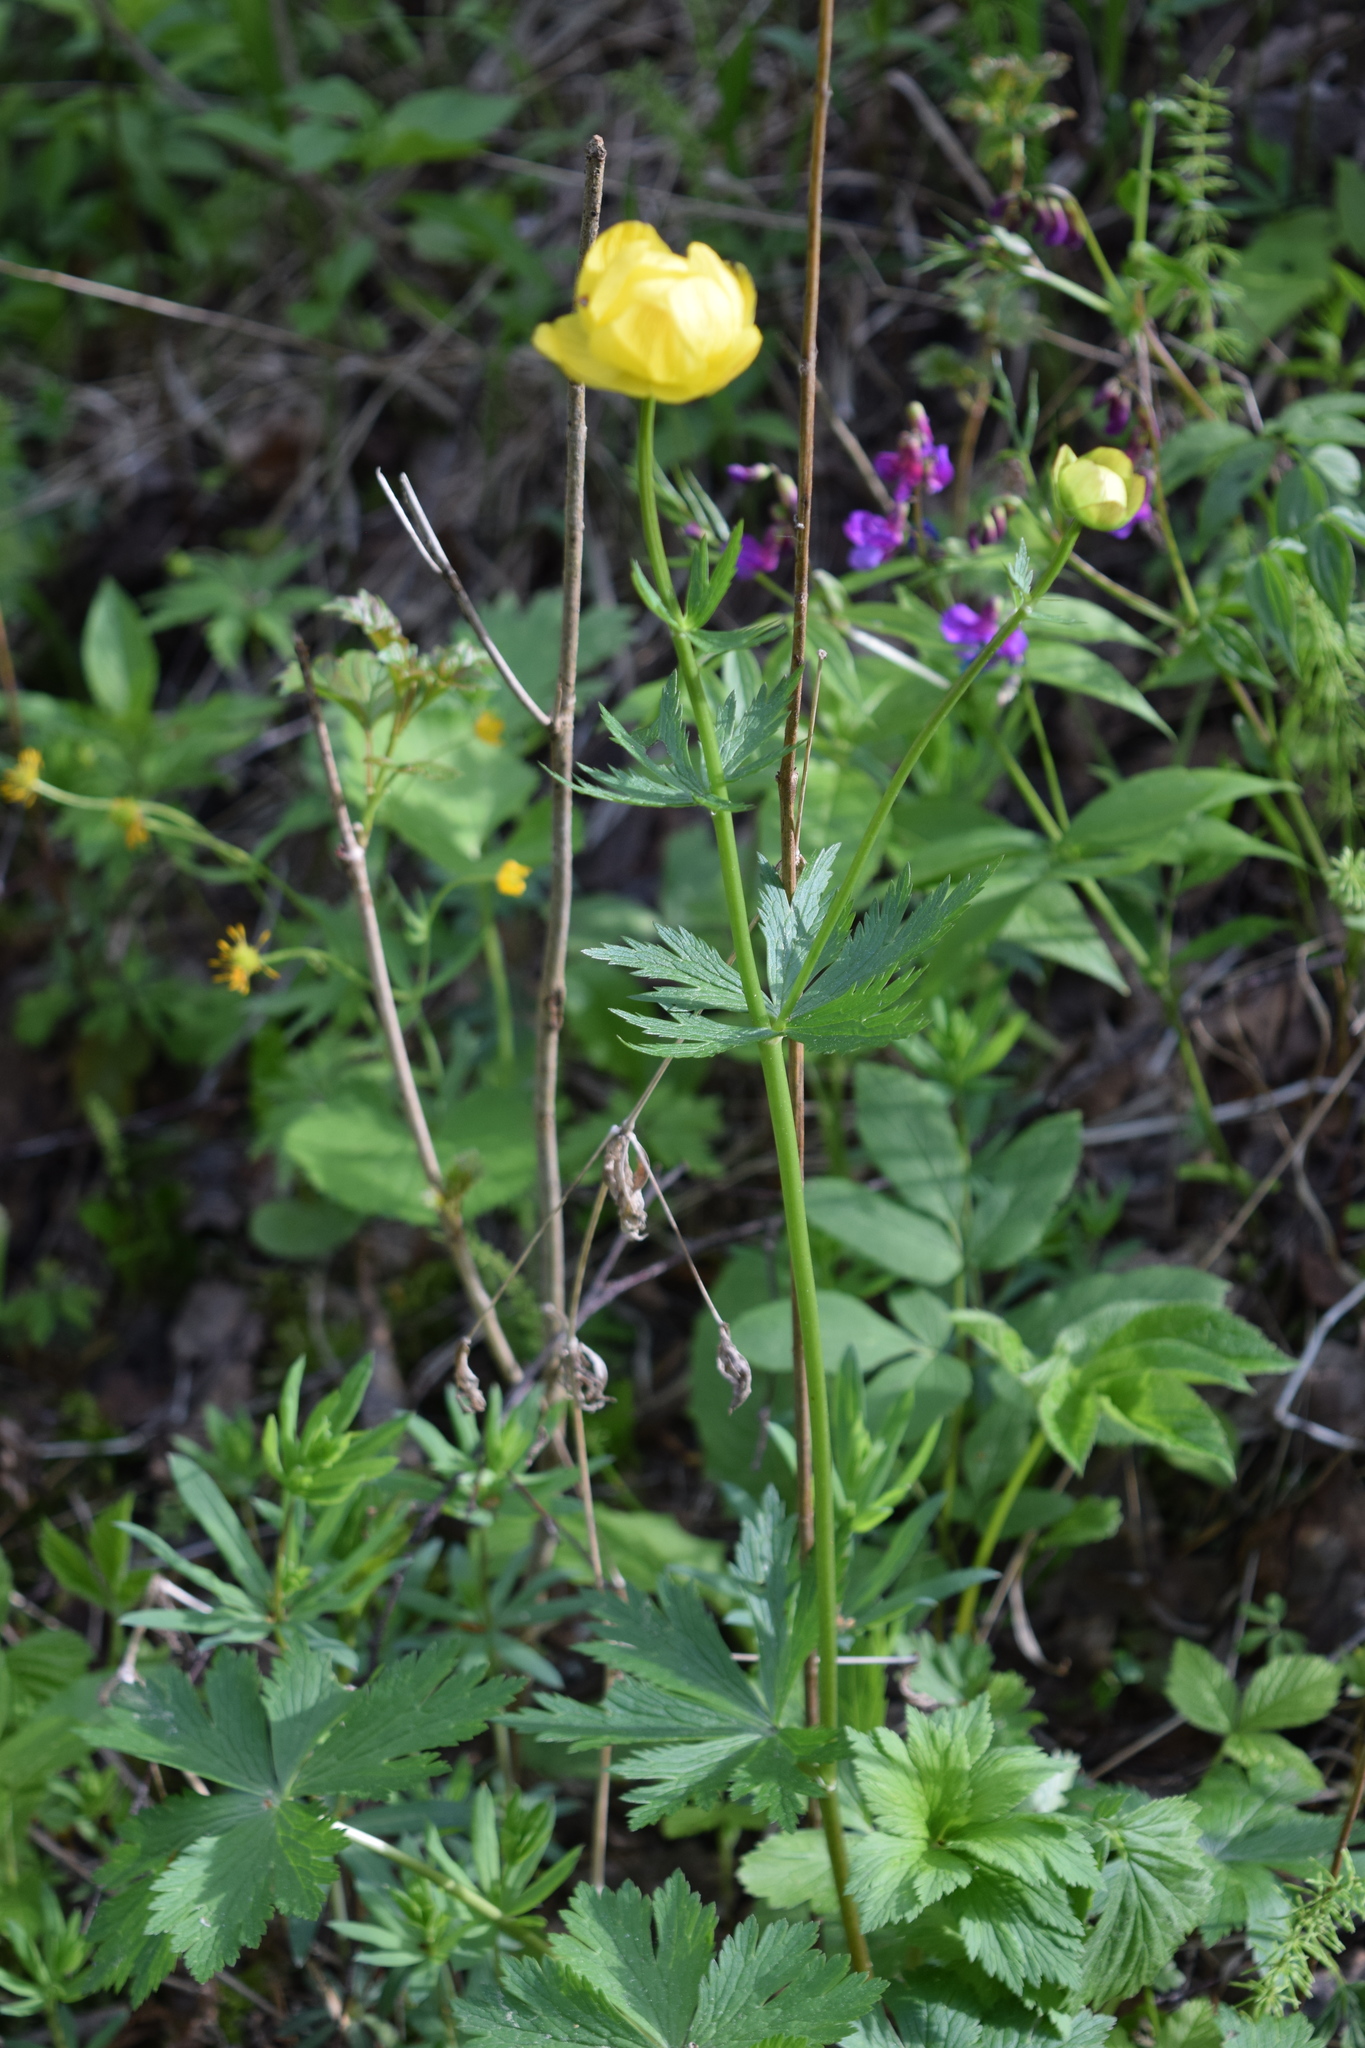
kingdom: Plantae
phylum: Tracheophyta
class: Magnoliopsida
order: Ranunculales
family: Ranunculaceae
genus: Trollius
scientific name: Trollius europaeus
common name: European globeflower
